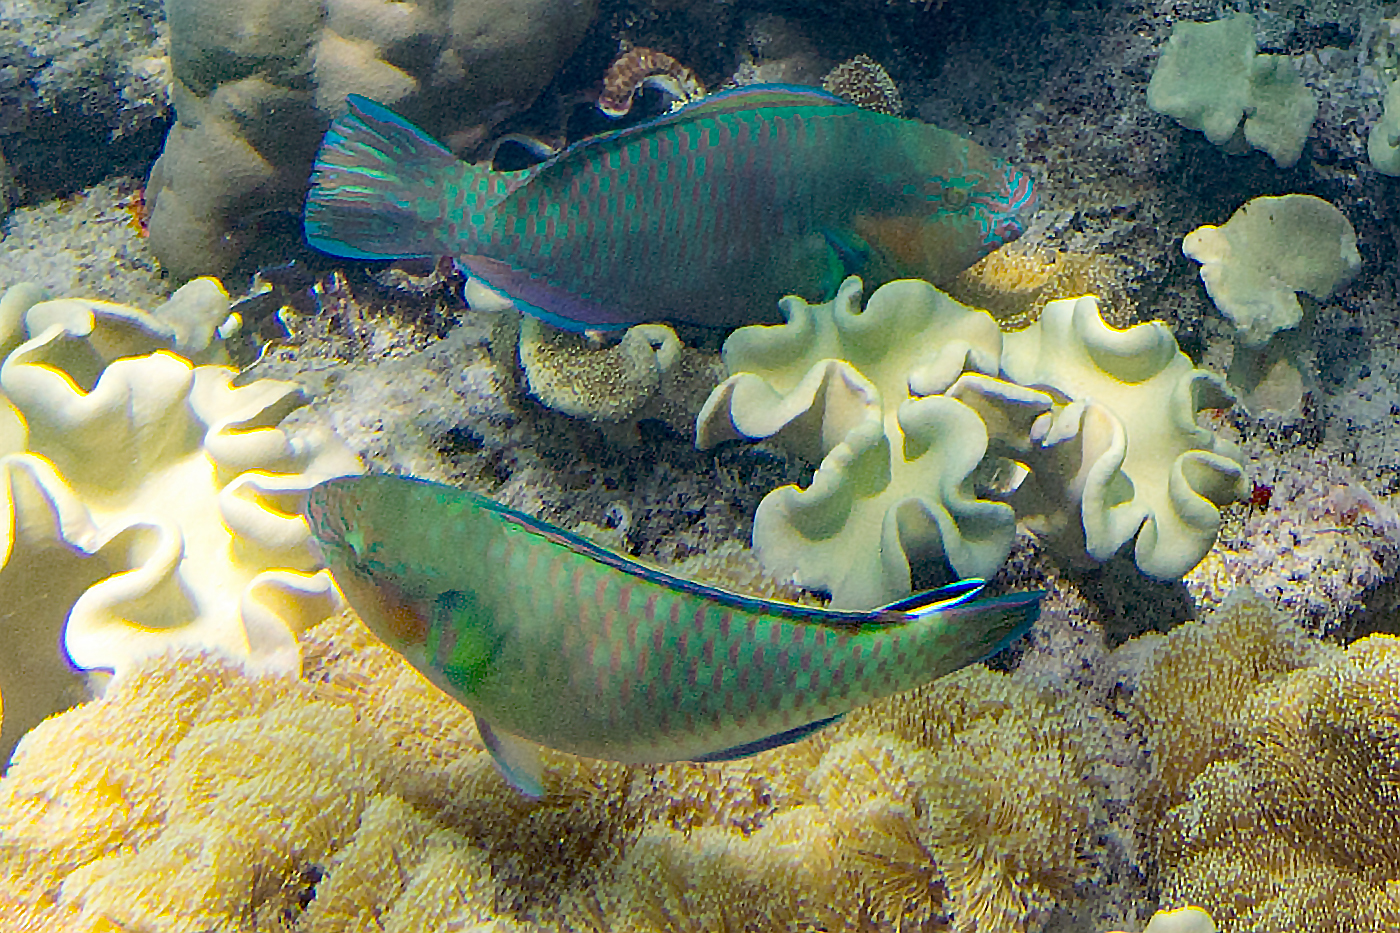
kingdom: Animalia
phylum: Chordata
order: Perciformes
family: Scaridae
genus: Scarus
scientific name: Scarus rivulatus
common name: Surf parrotfish
